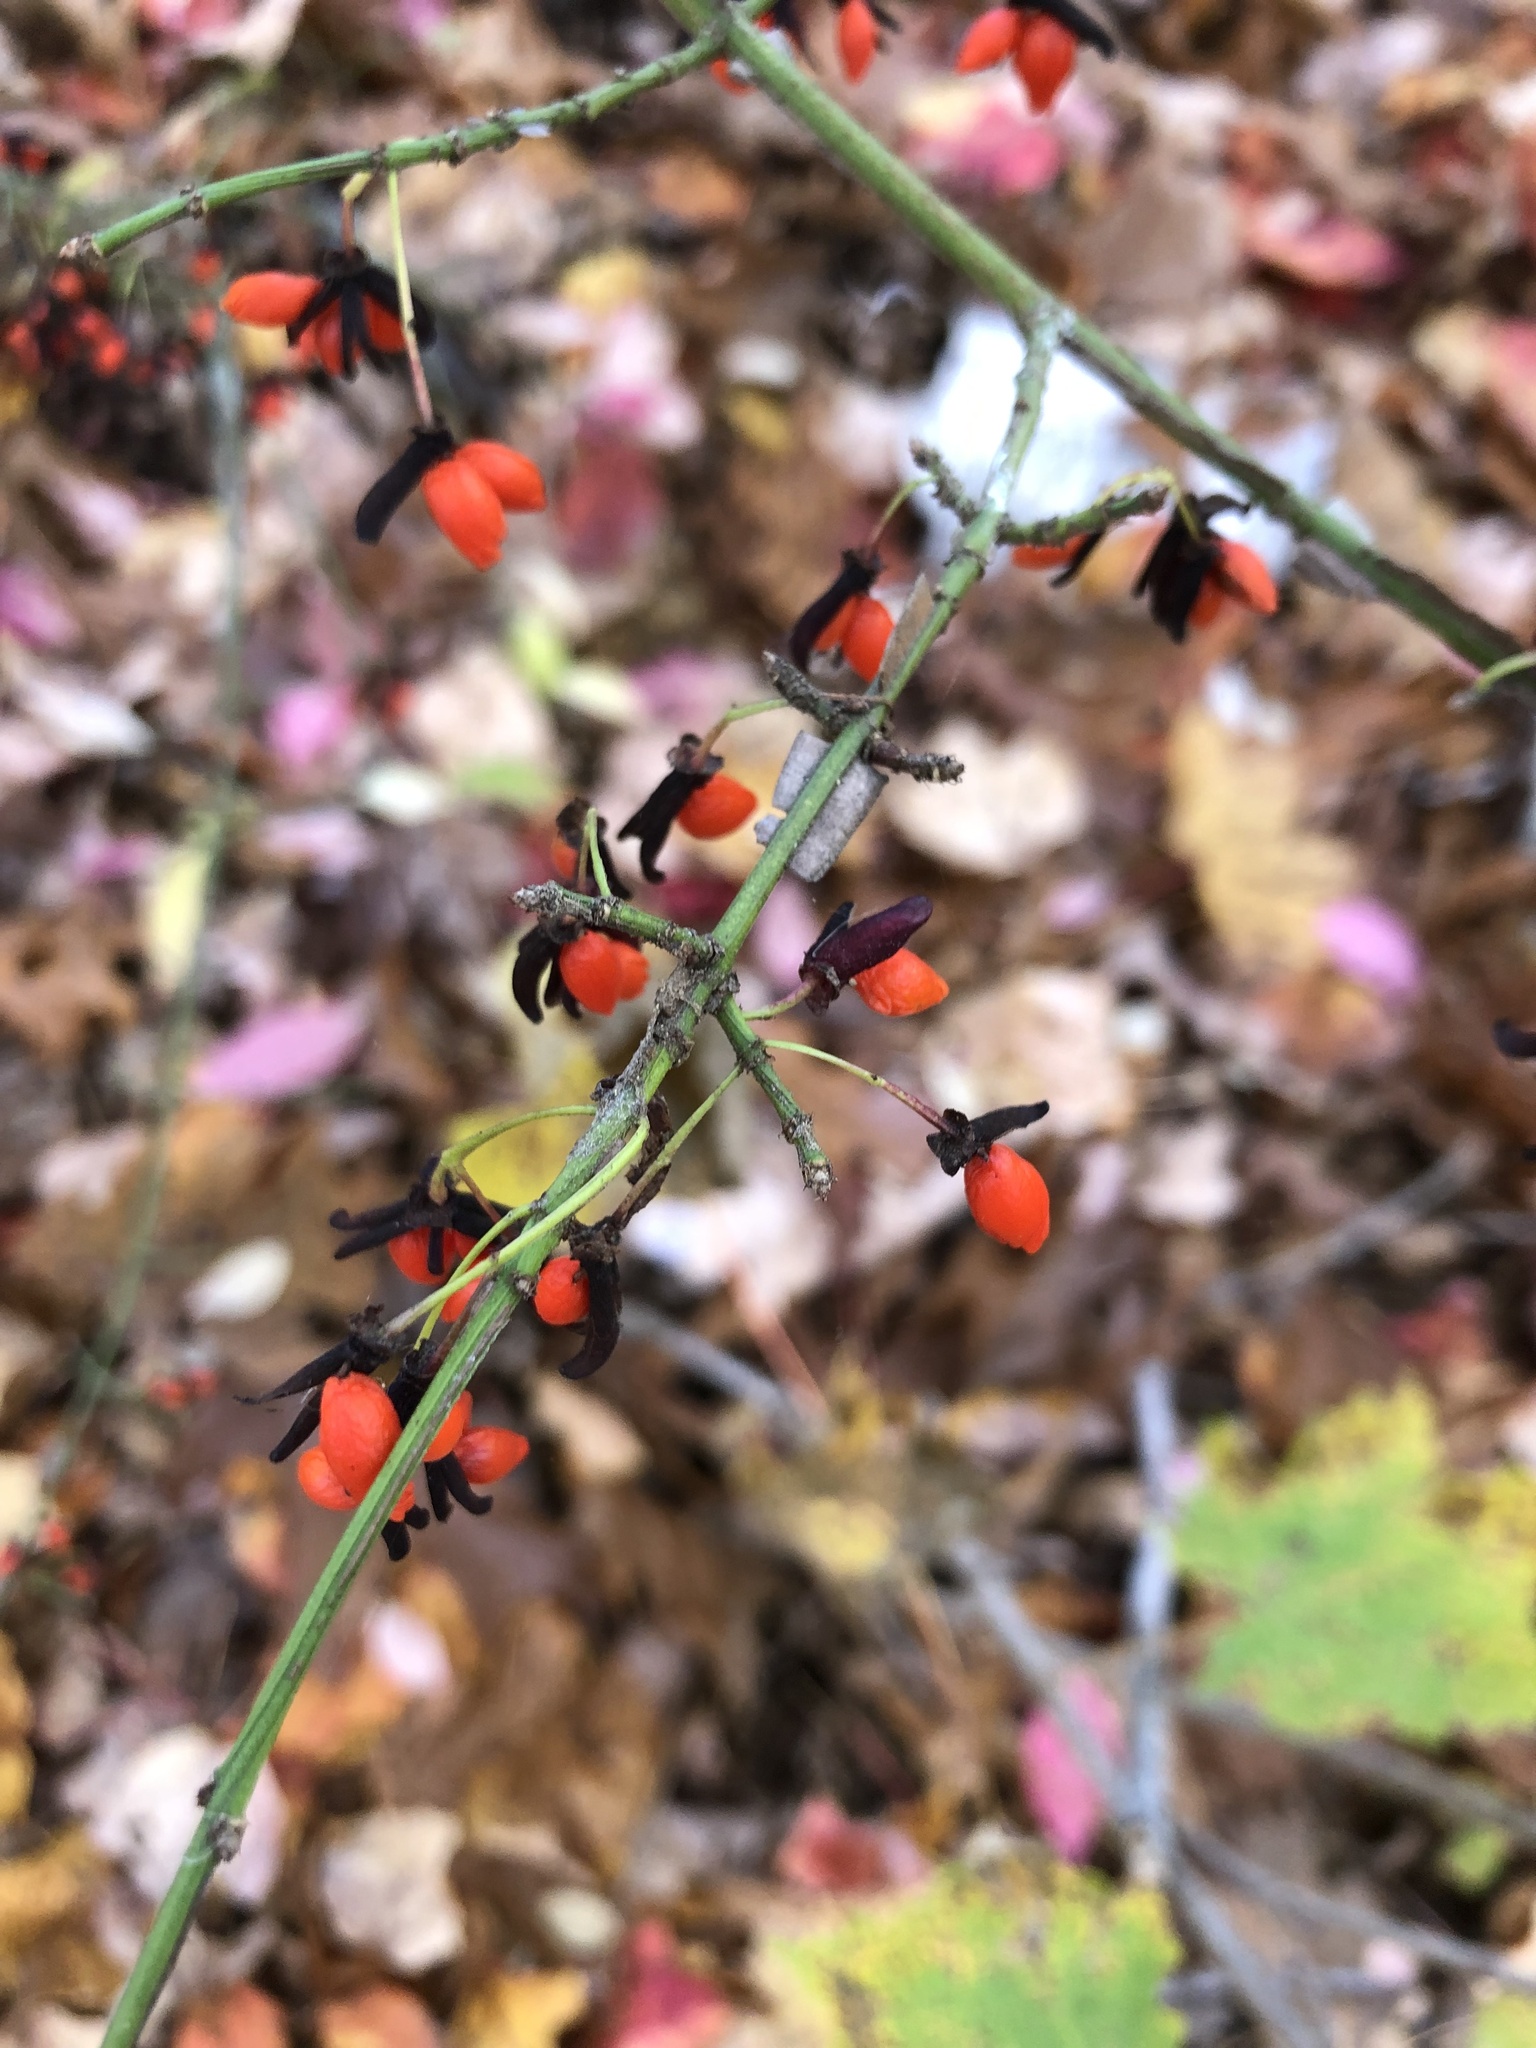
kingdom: Plantae
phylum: Tracheophyta
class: Magnoliopsida
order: Celastrales
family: Celastraceae
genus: Euonymus
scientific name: Euonymus alatus
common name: Winged euonymus
